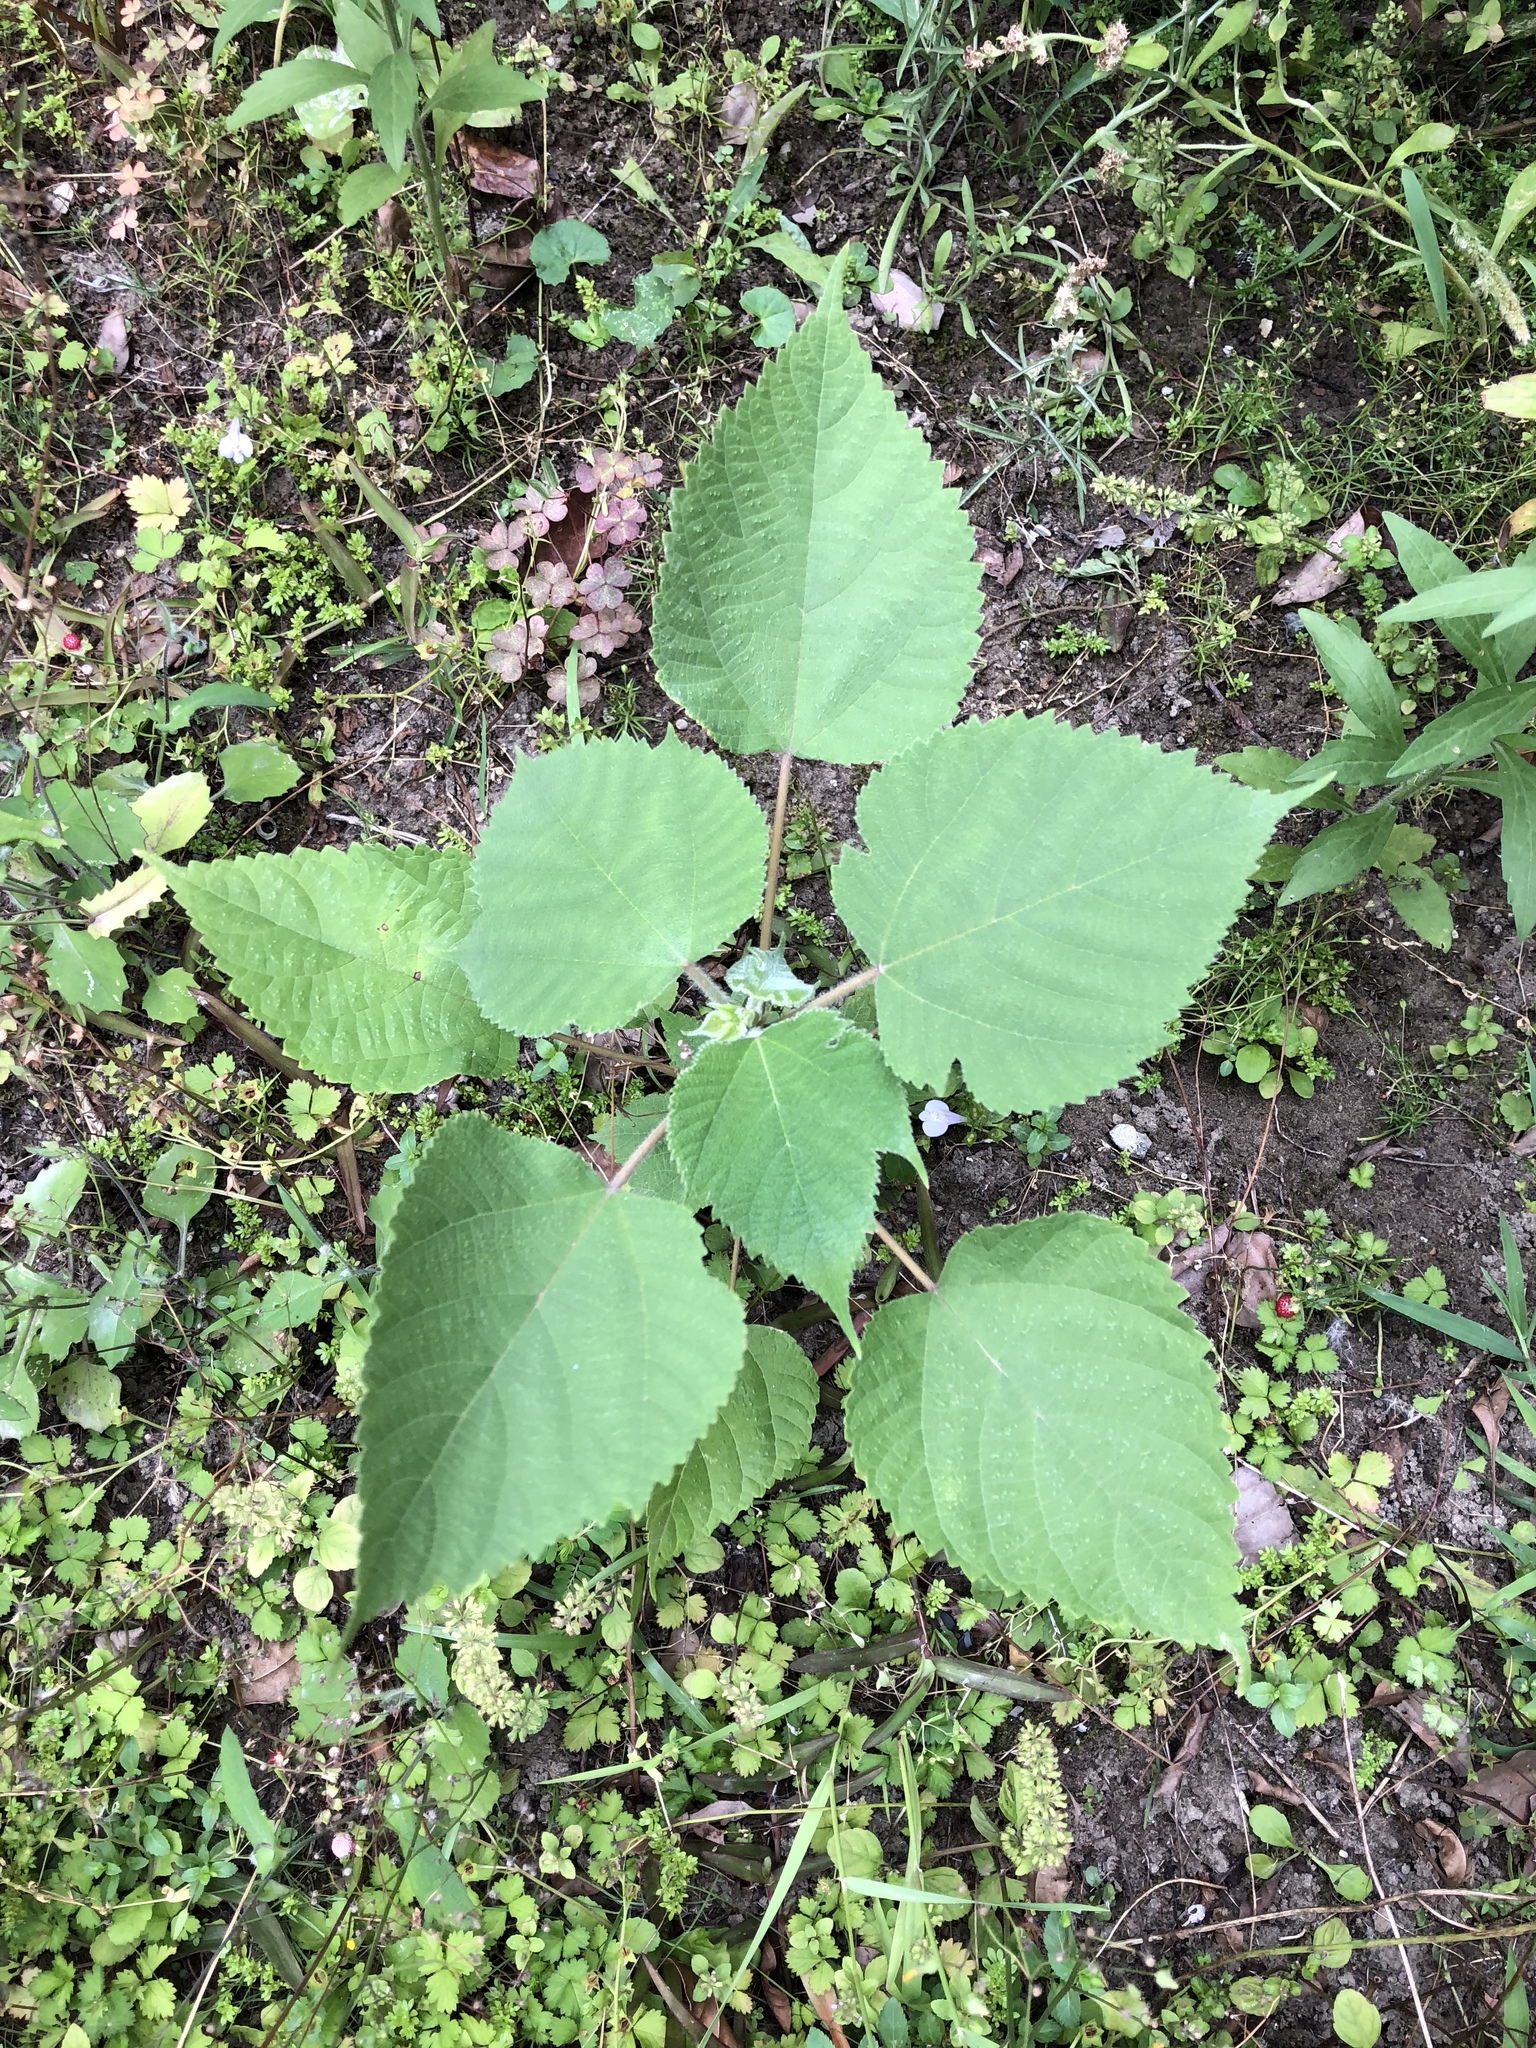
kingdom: Plantae
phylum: Tracheophyta
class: Magnoliopsida
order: Rosales
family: Moraceae
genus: Broussonetia
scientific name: Broussonetia papyrifera
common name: Paper mulberry
